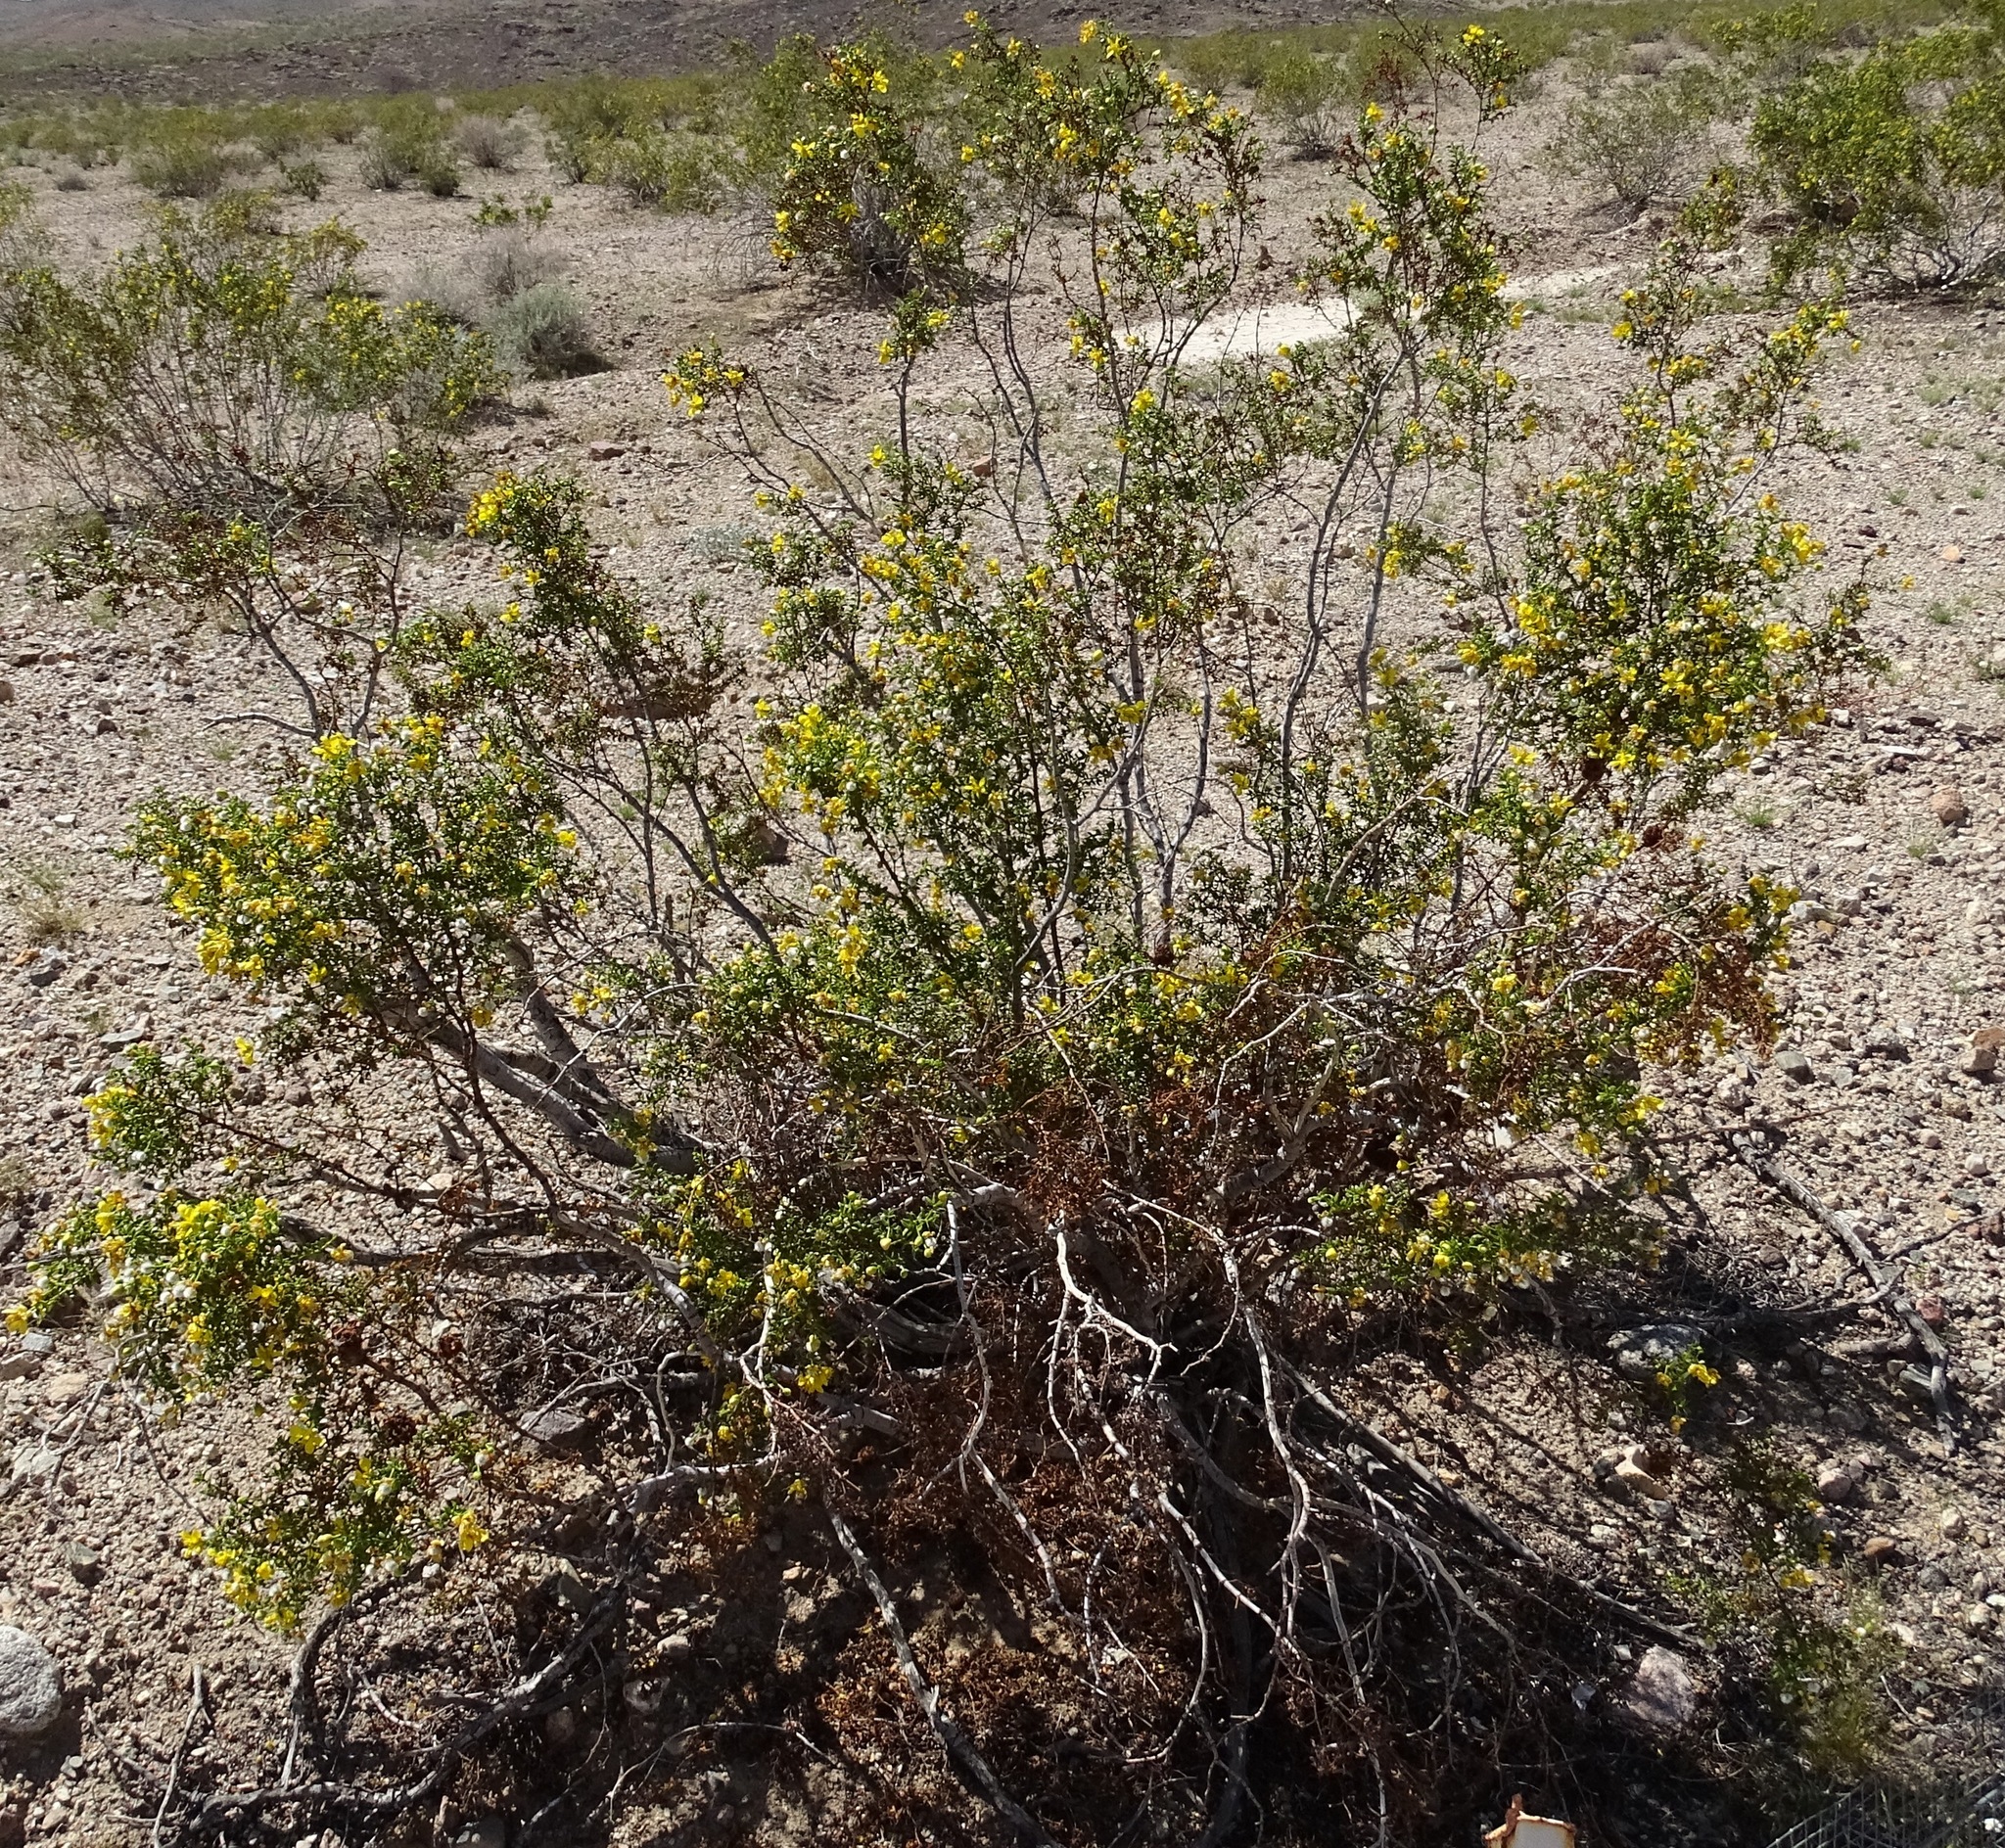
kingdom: Plantae
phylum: Tracheophyta
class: Magnoliopsida
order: Zygophyllales
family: Zygophyllaceae
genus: Larrea
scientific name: Larrea tridentata
